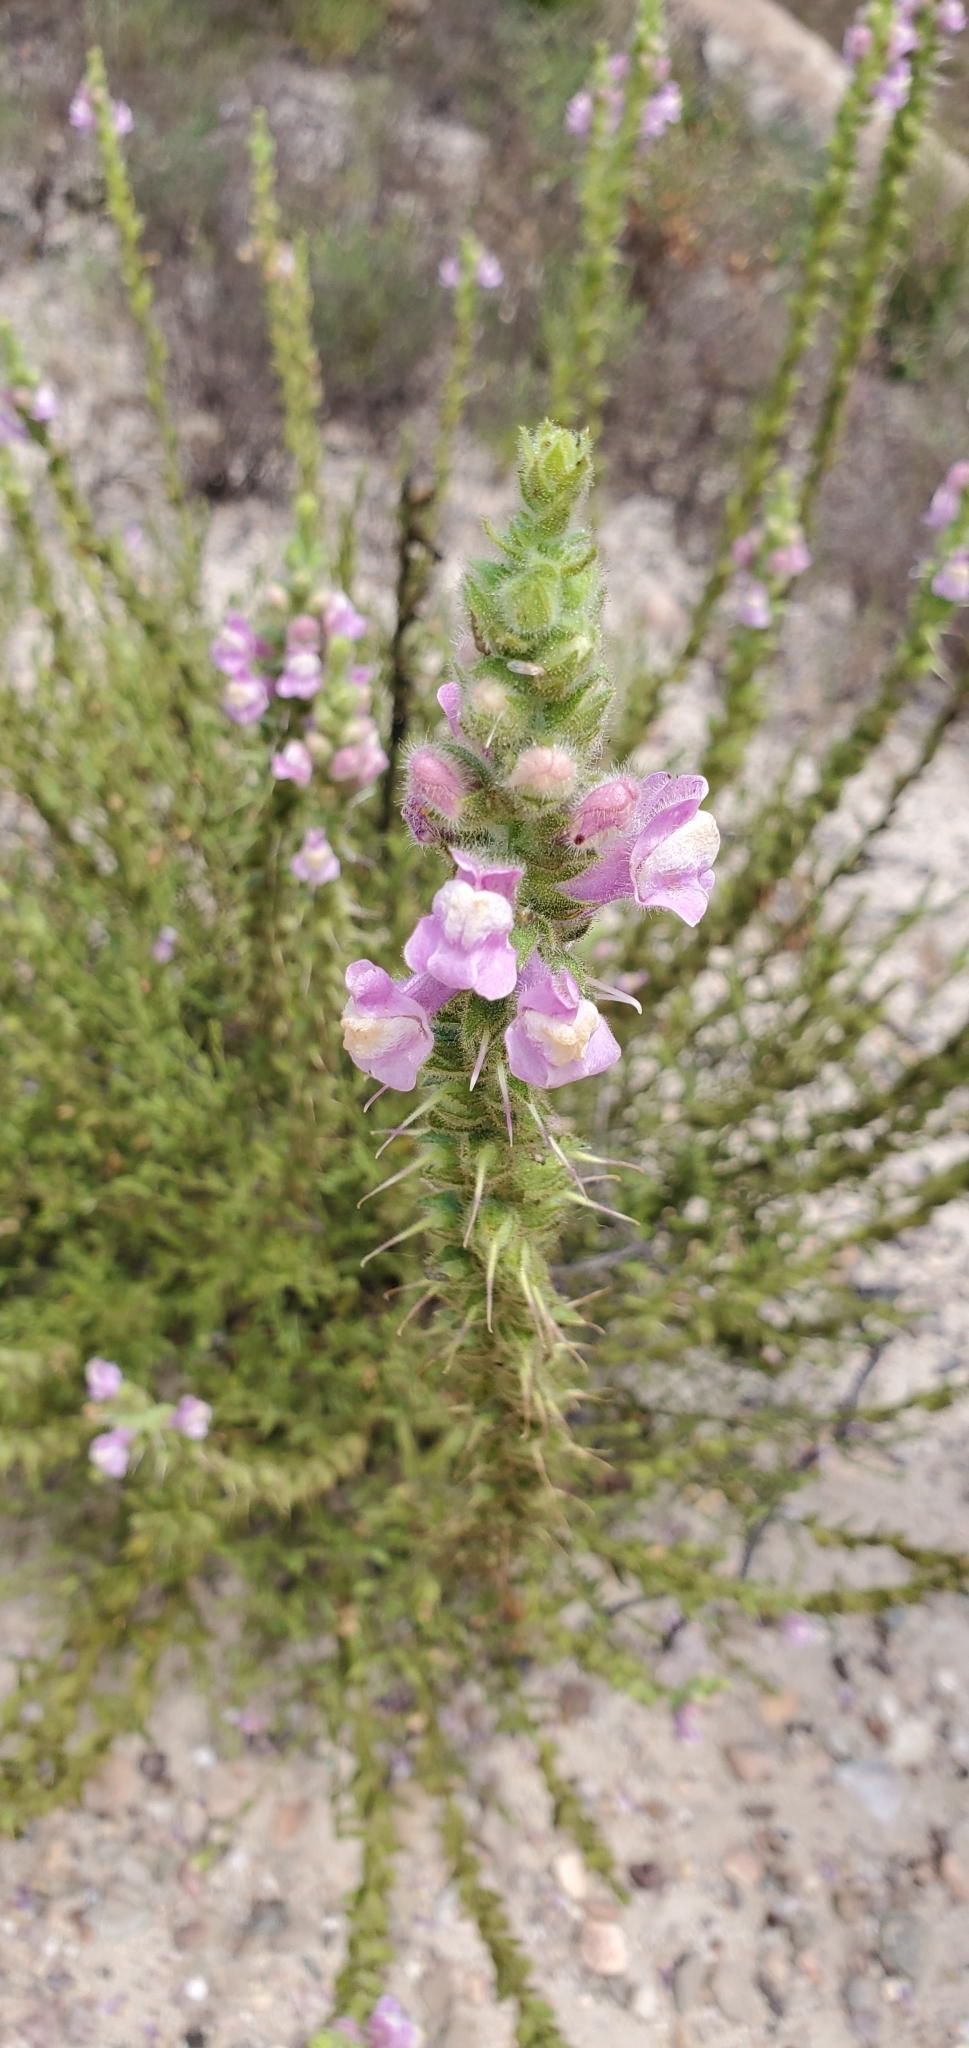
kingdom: Plantae
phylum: Tracheophyta
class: Magnoliopsida
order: Lamiales
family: Plantaginaceae
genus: Sairocarpus
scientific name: Sairocarpus multiflorus
